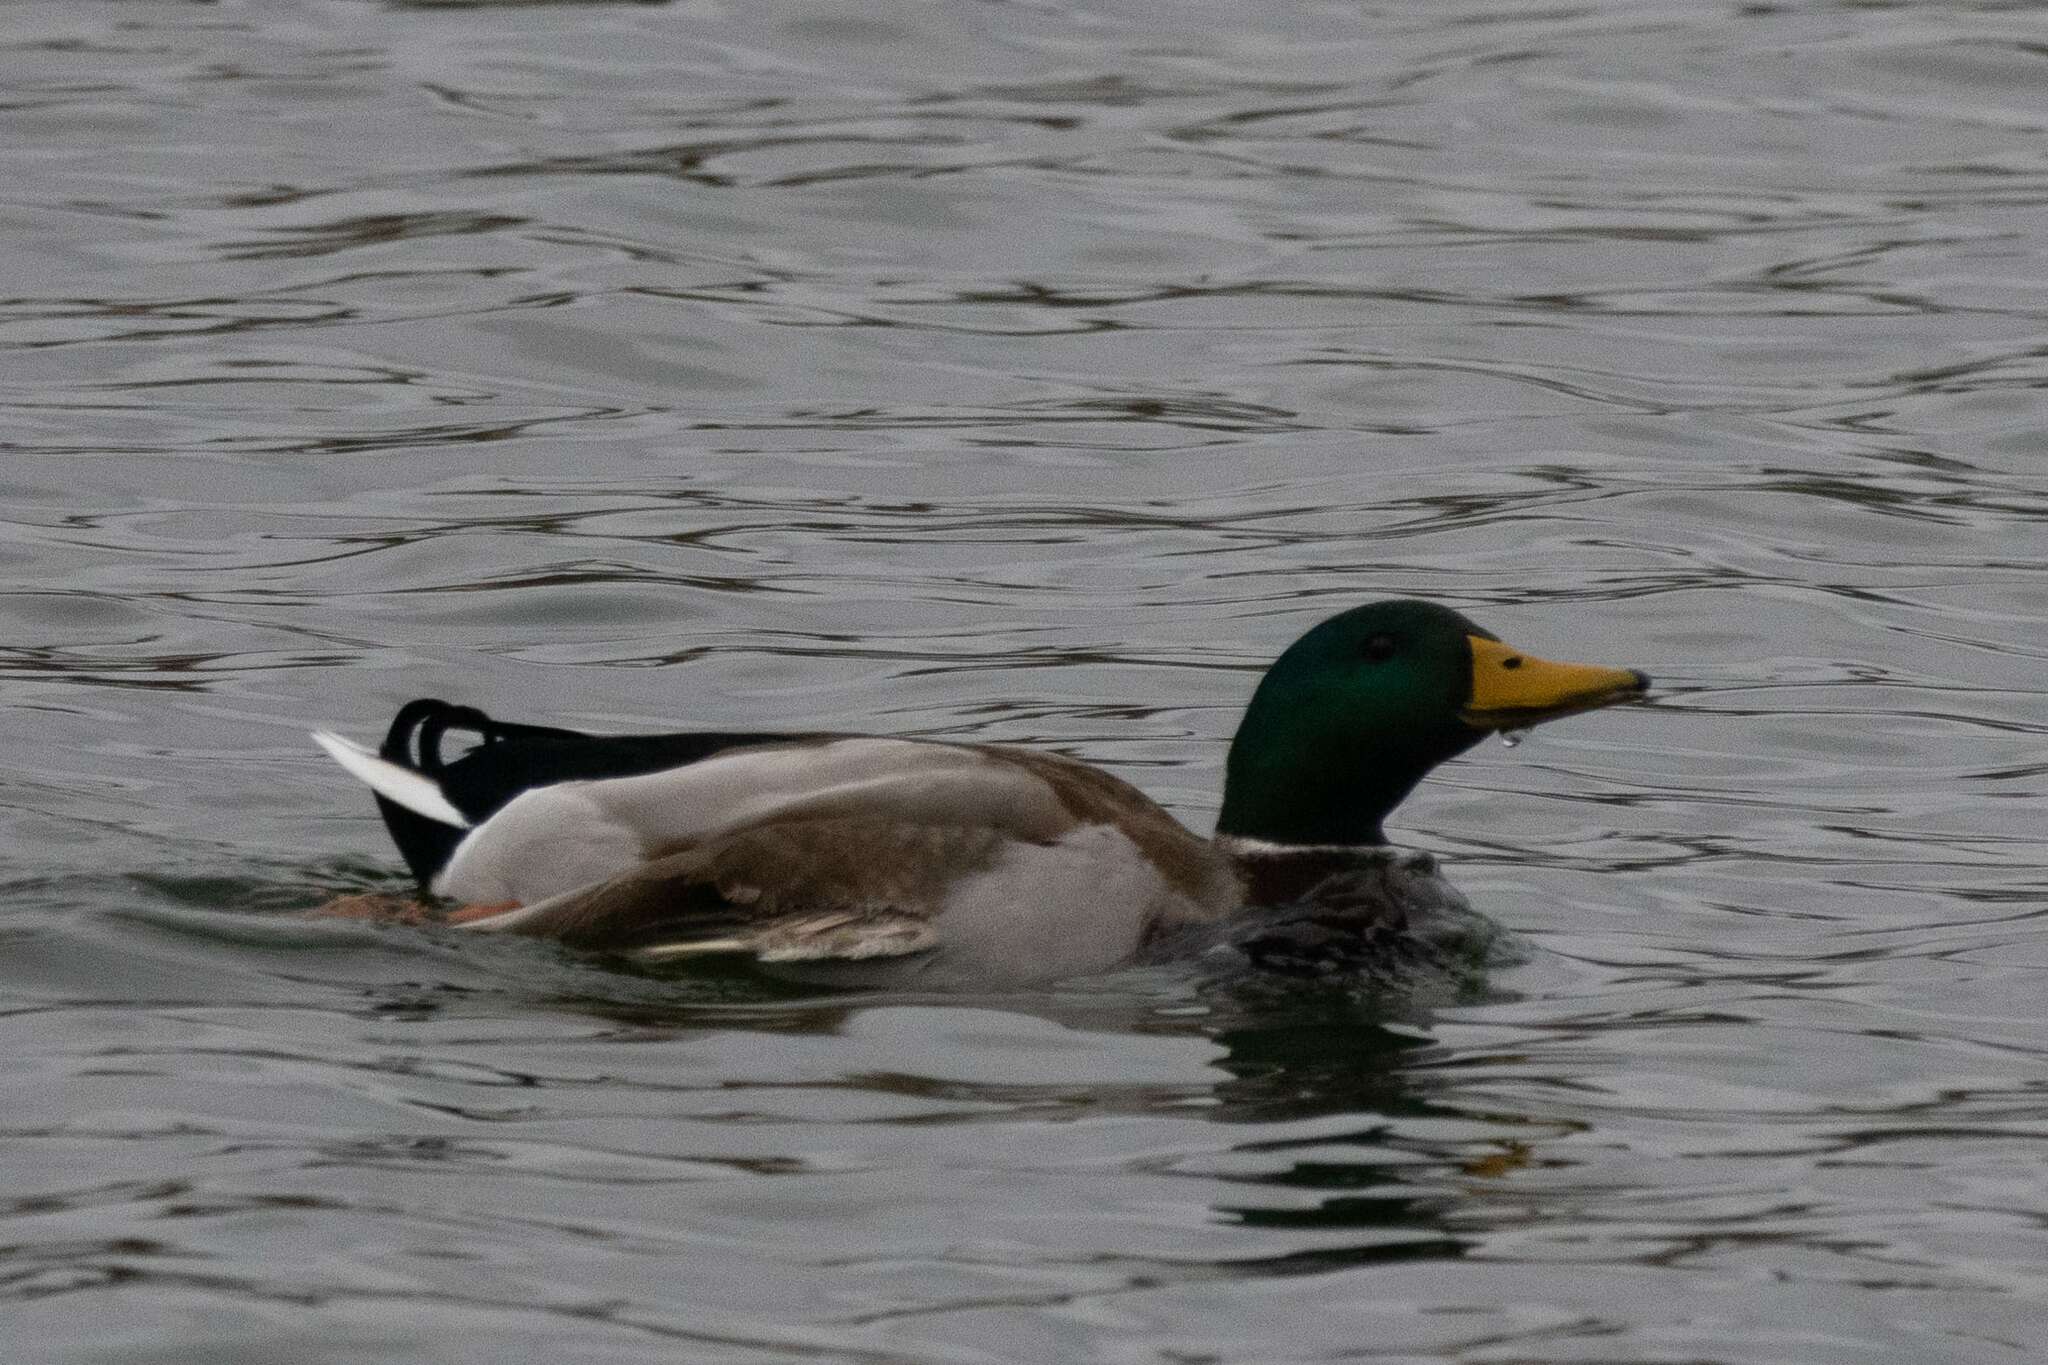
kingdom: Animalia
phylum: Chordata
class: Aves
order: Anseriformes
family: Anatidae
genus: Anas
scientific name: Anas platyrhynchos
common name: Mallard
